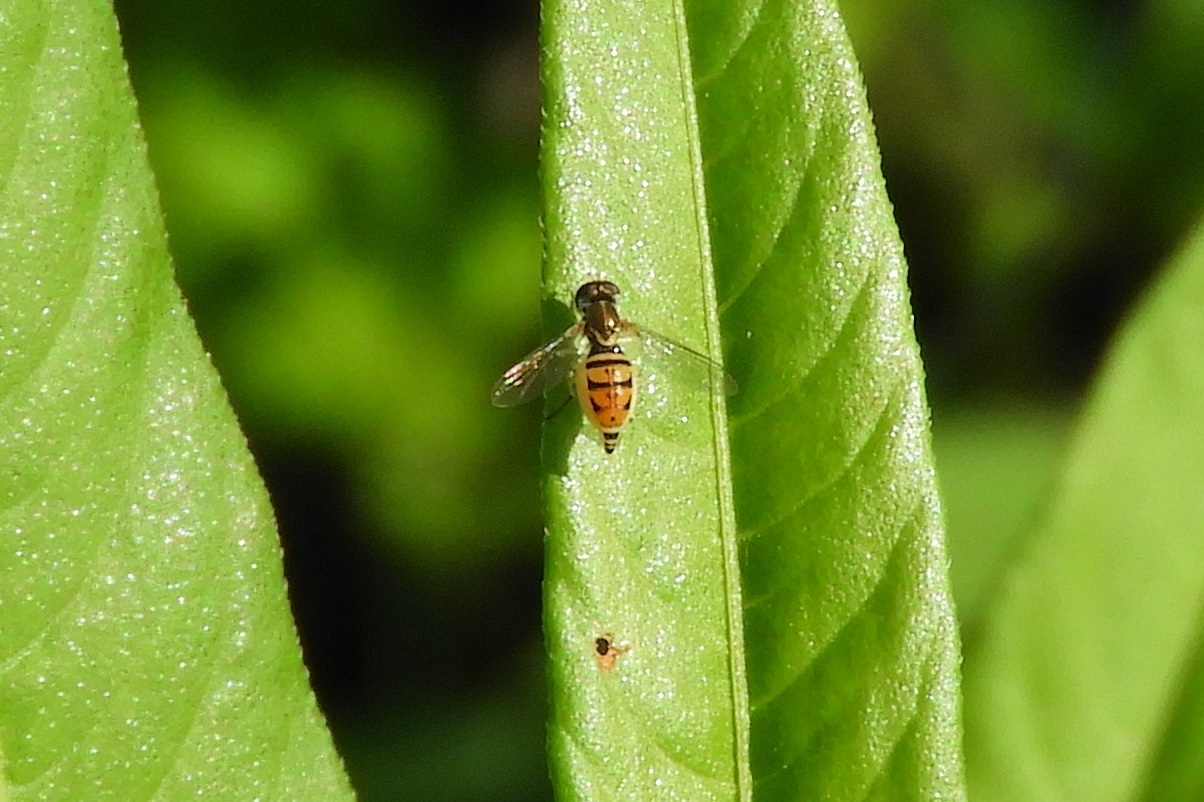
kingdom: Animalia
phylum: Arthropoda
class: Insecta
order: Diptera
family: Syrphidae
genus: Toxomerus
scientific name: Toxomerus marginatus
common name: Syrphid fly
